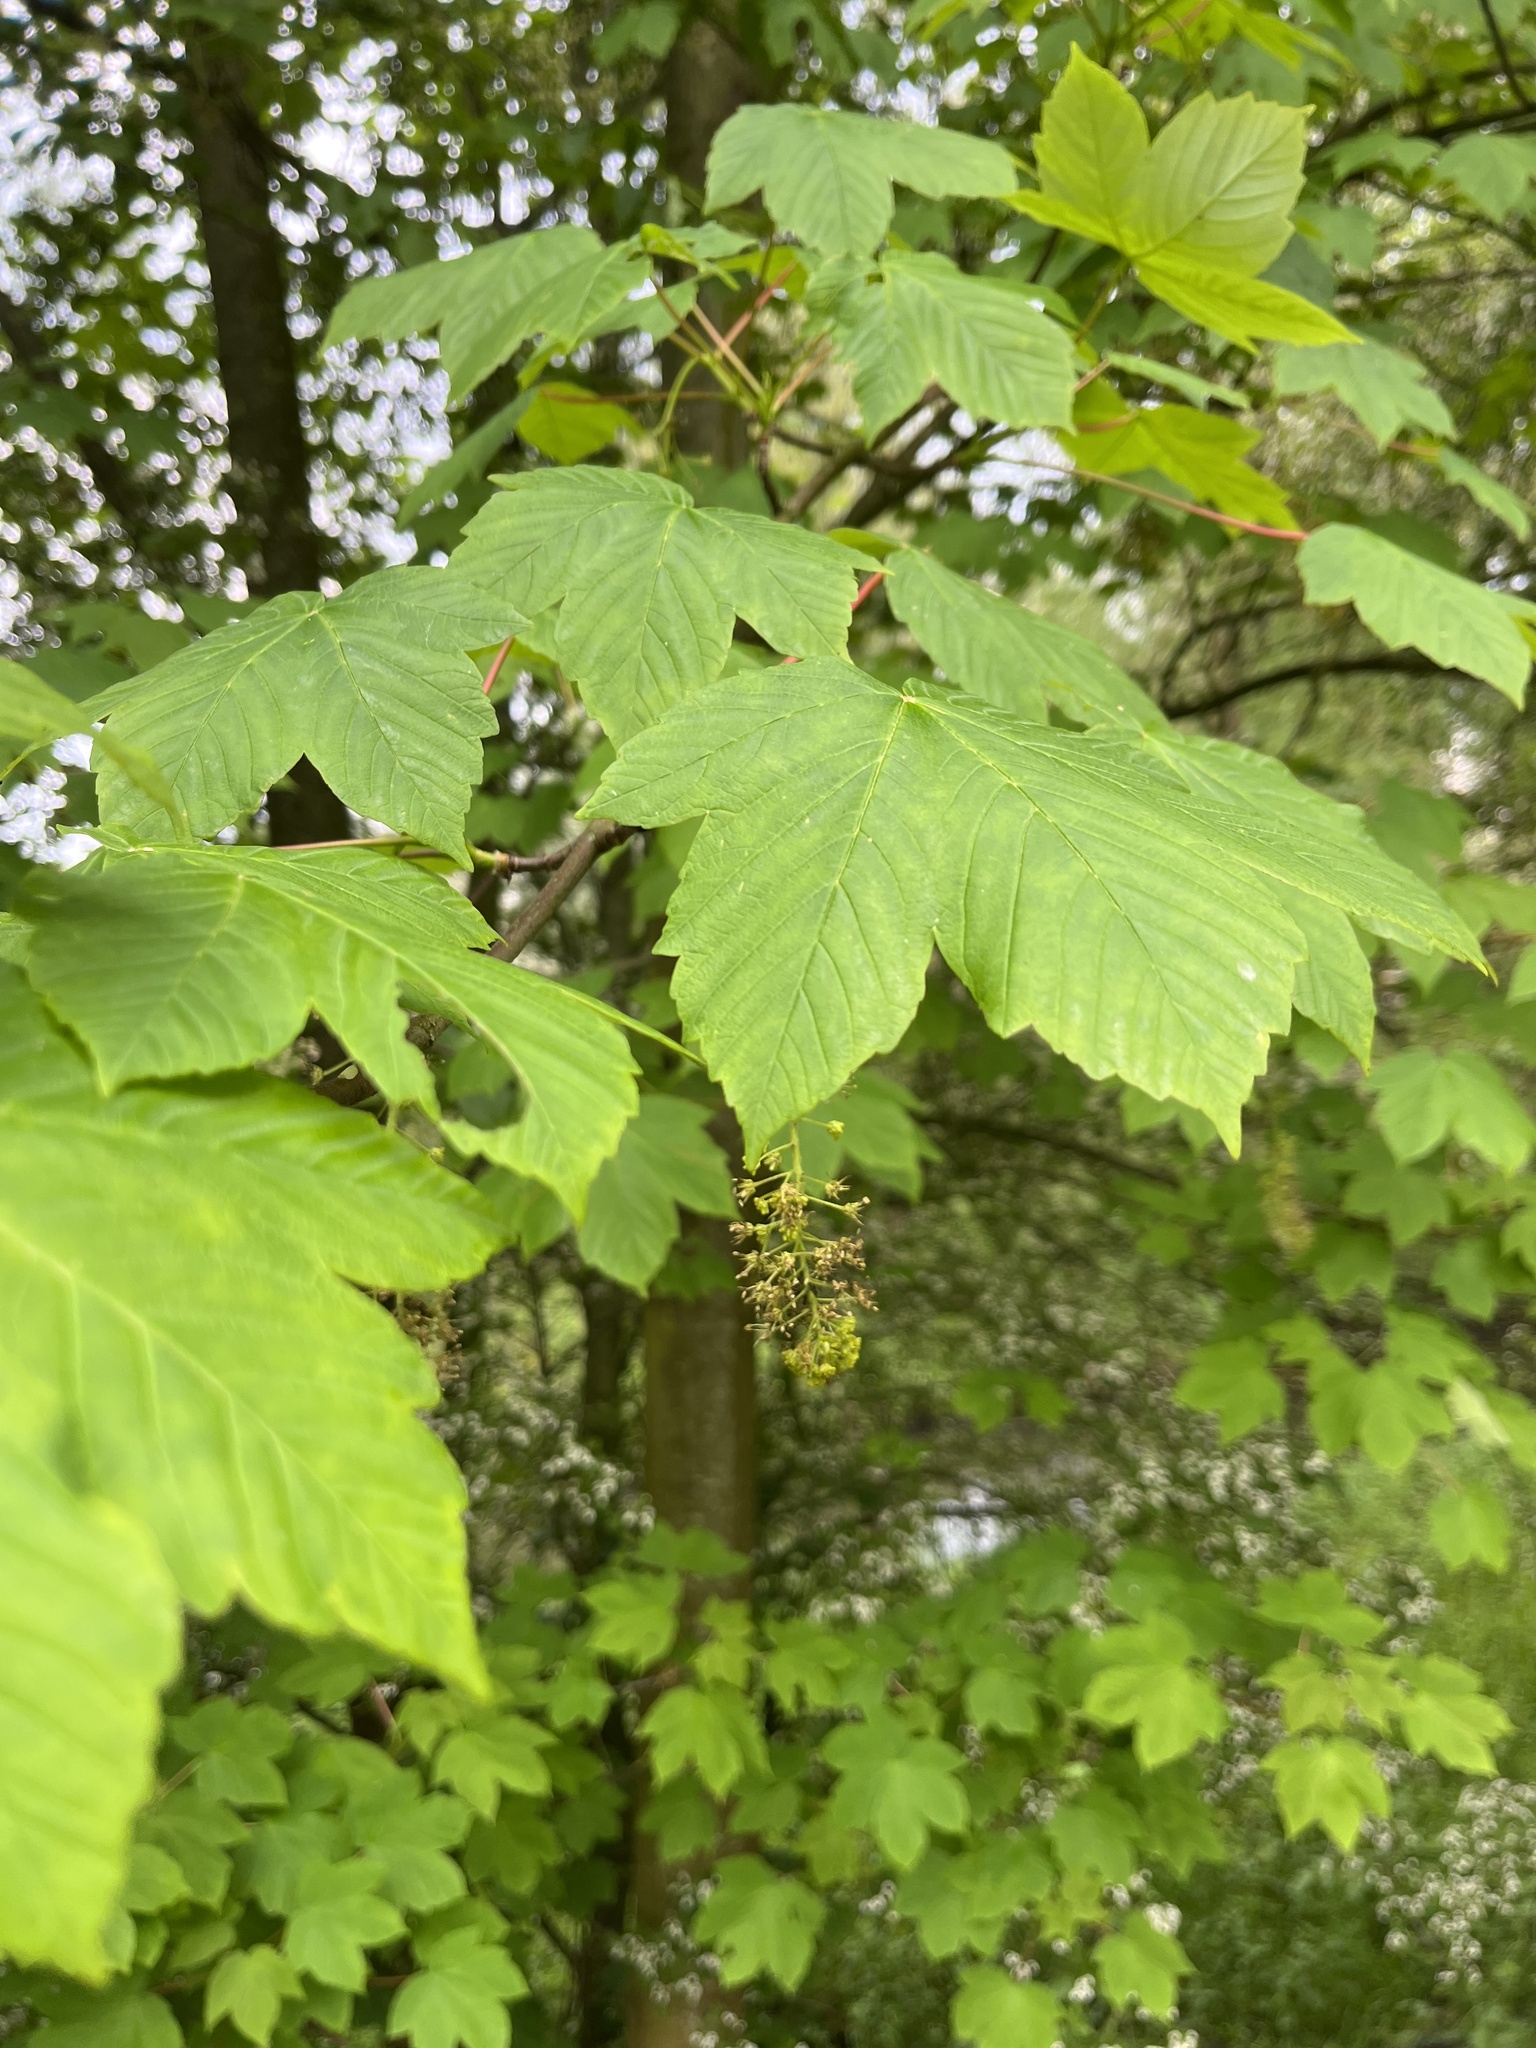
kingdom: Plantae
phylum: Tracheophyta
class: Magnoliopsida
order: Sapindales
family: Sapindaceae
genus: Acer
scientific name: Acer pseudoplatanus
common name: Sycamore
